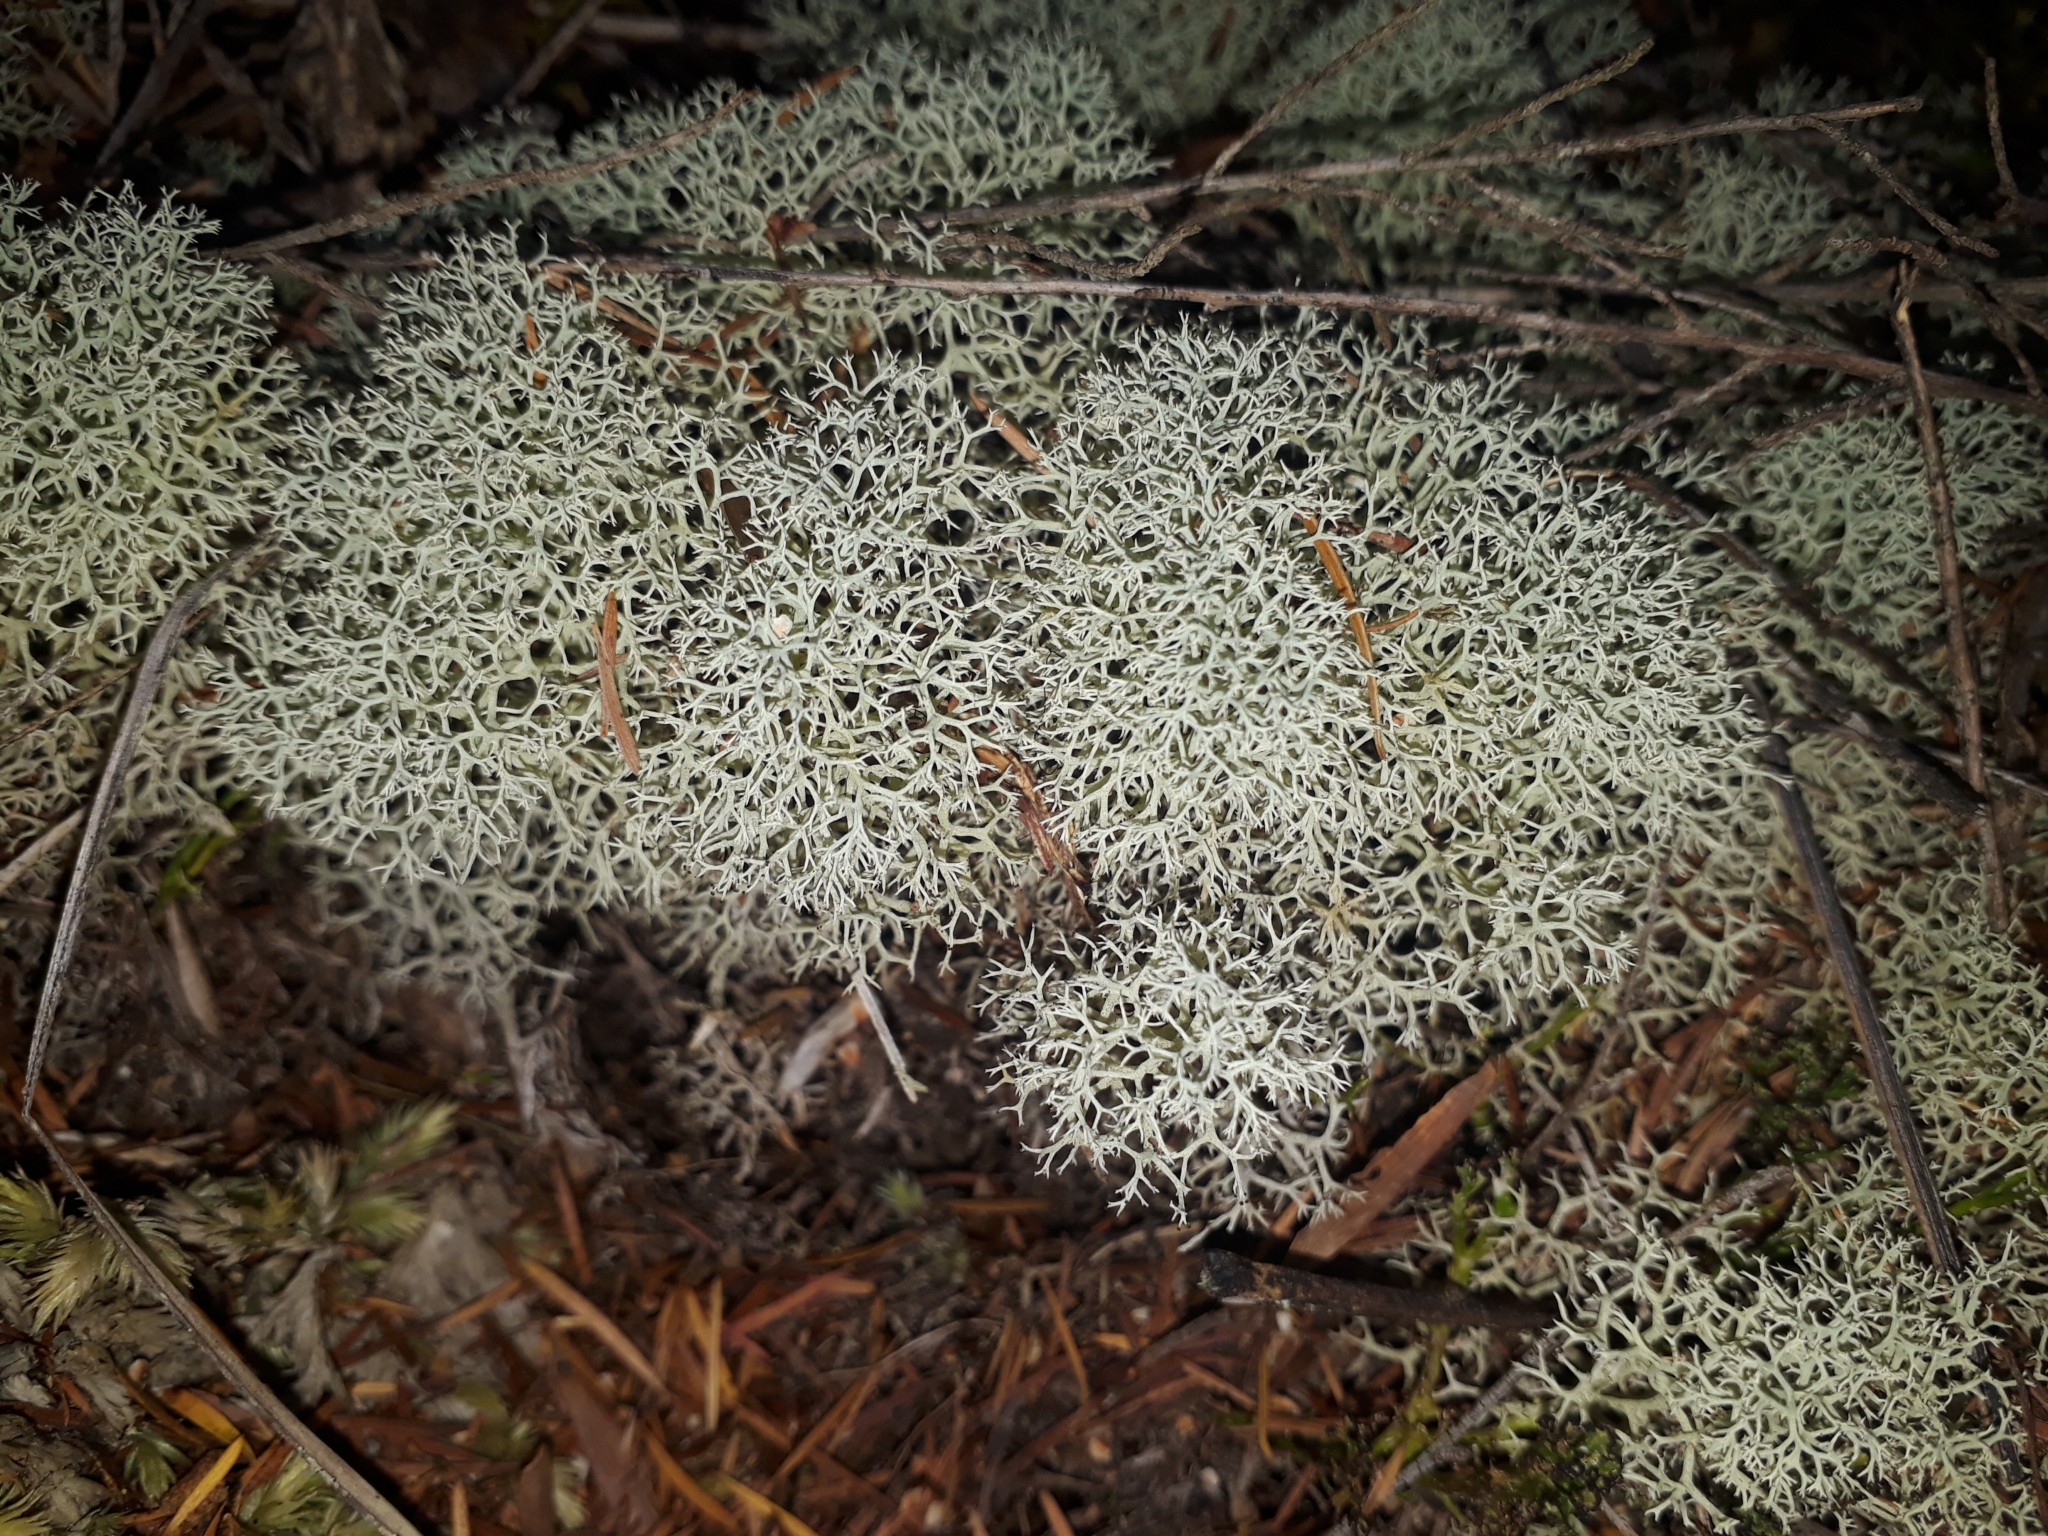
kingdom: Fungi
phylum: Ascomycota
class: Lecanoromycetes
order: Lecanorales
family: Cladoniaceae
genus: Cladonia
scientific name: Cladonia confusa
